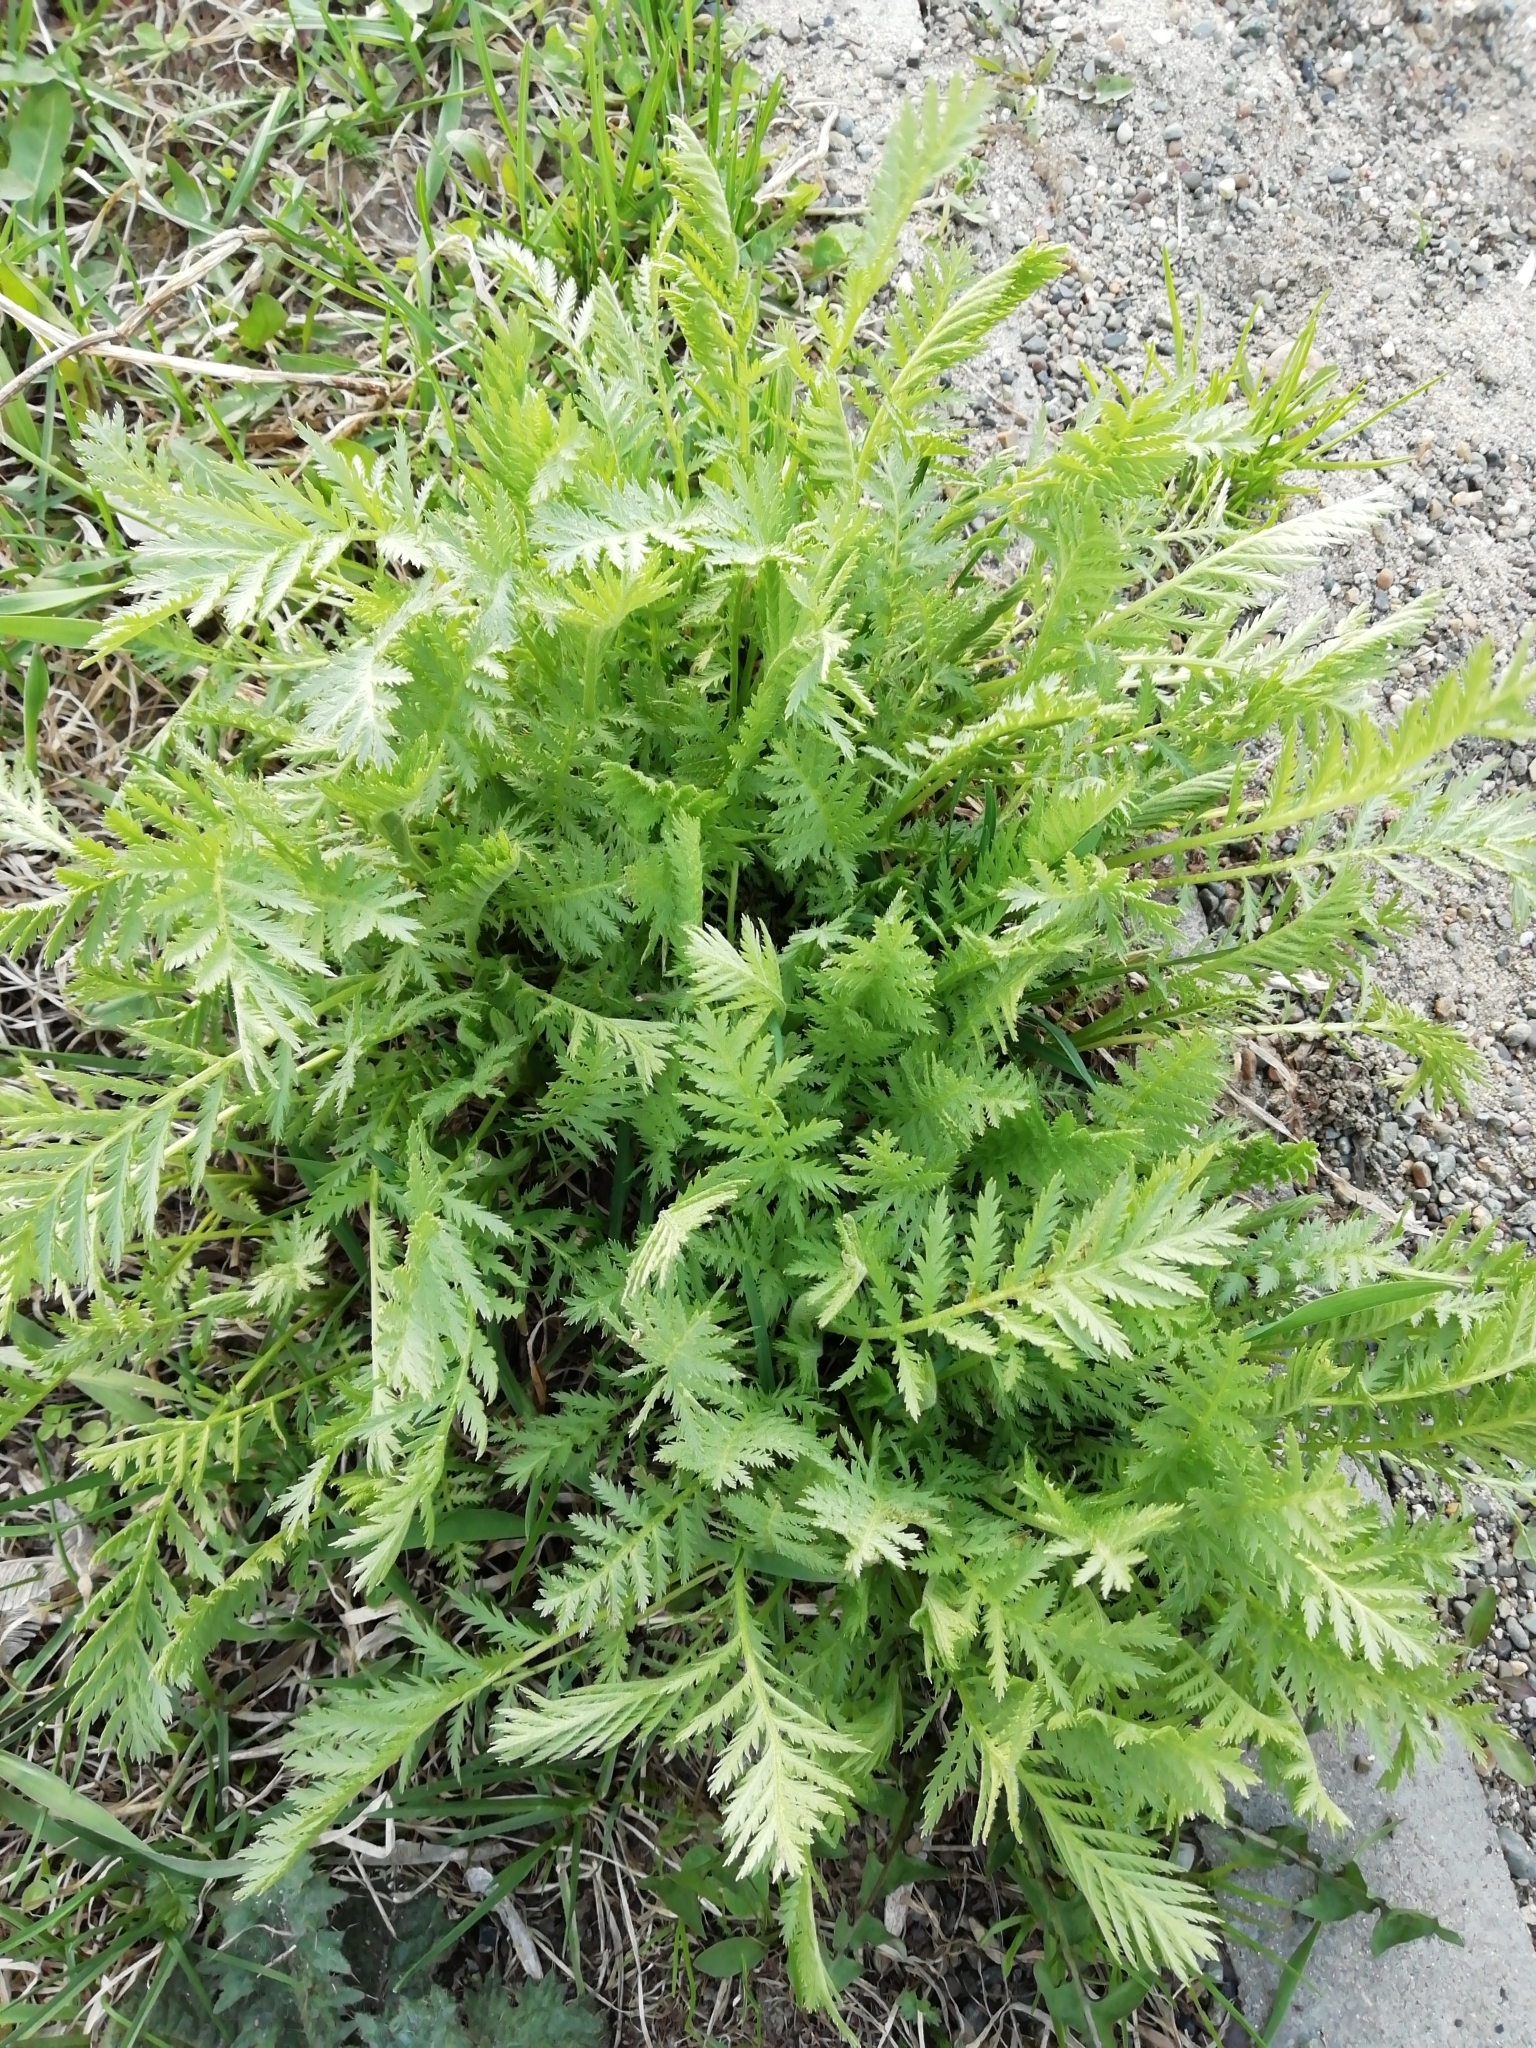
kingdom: Plantae
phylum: Tracheophyta
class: Magnoliopsida
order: Asterales
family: Asteraceae
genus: Tanacetum
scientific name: Tanacetum vulgare
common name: Common tansy
